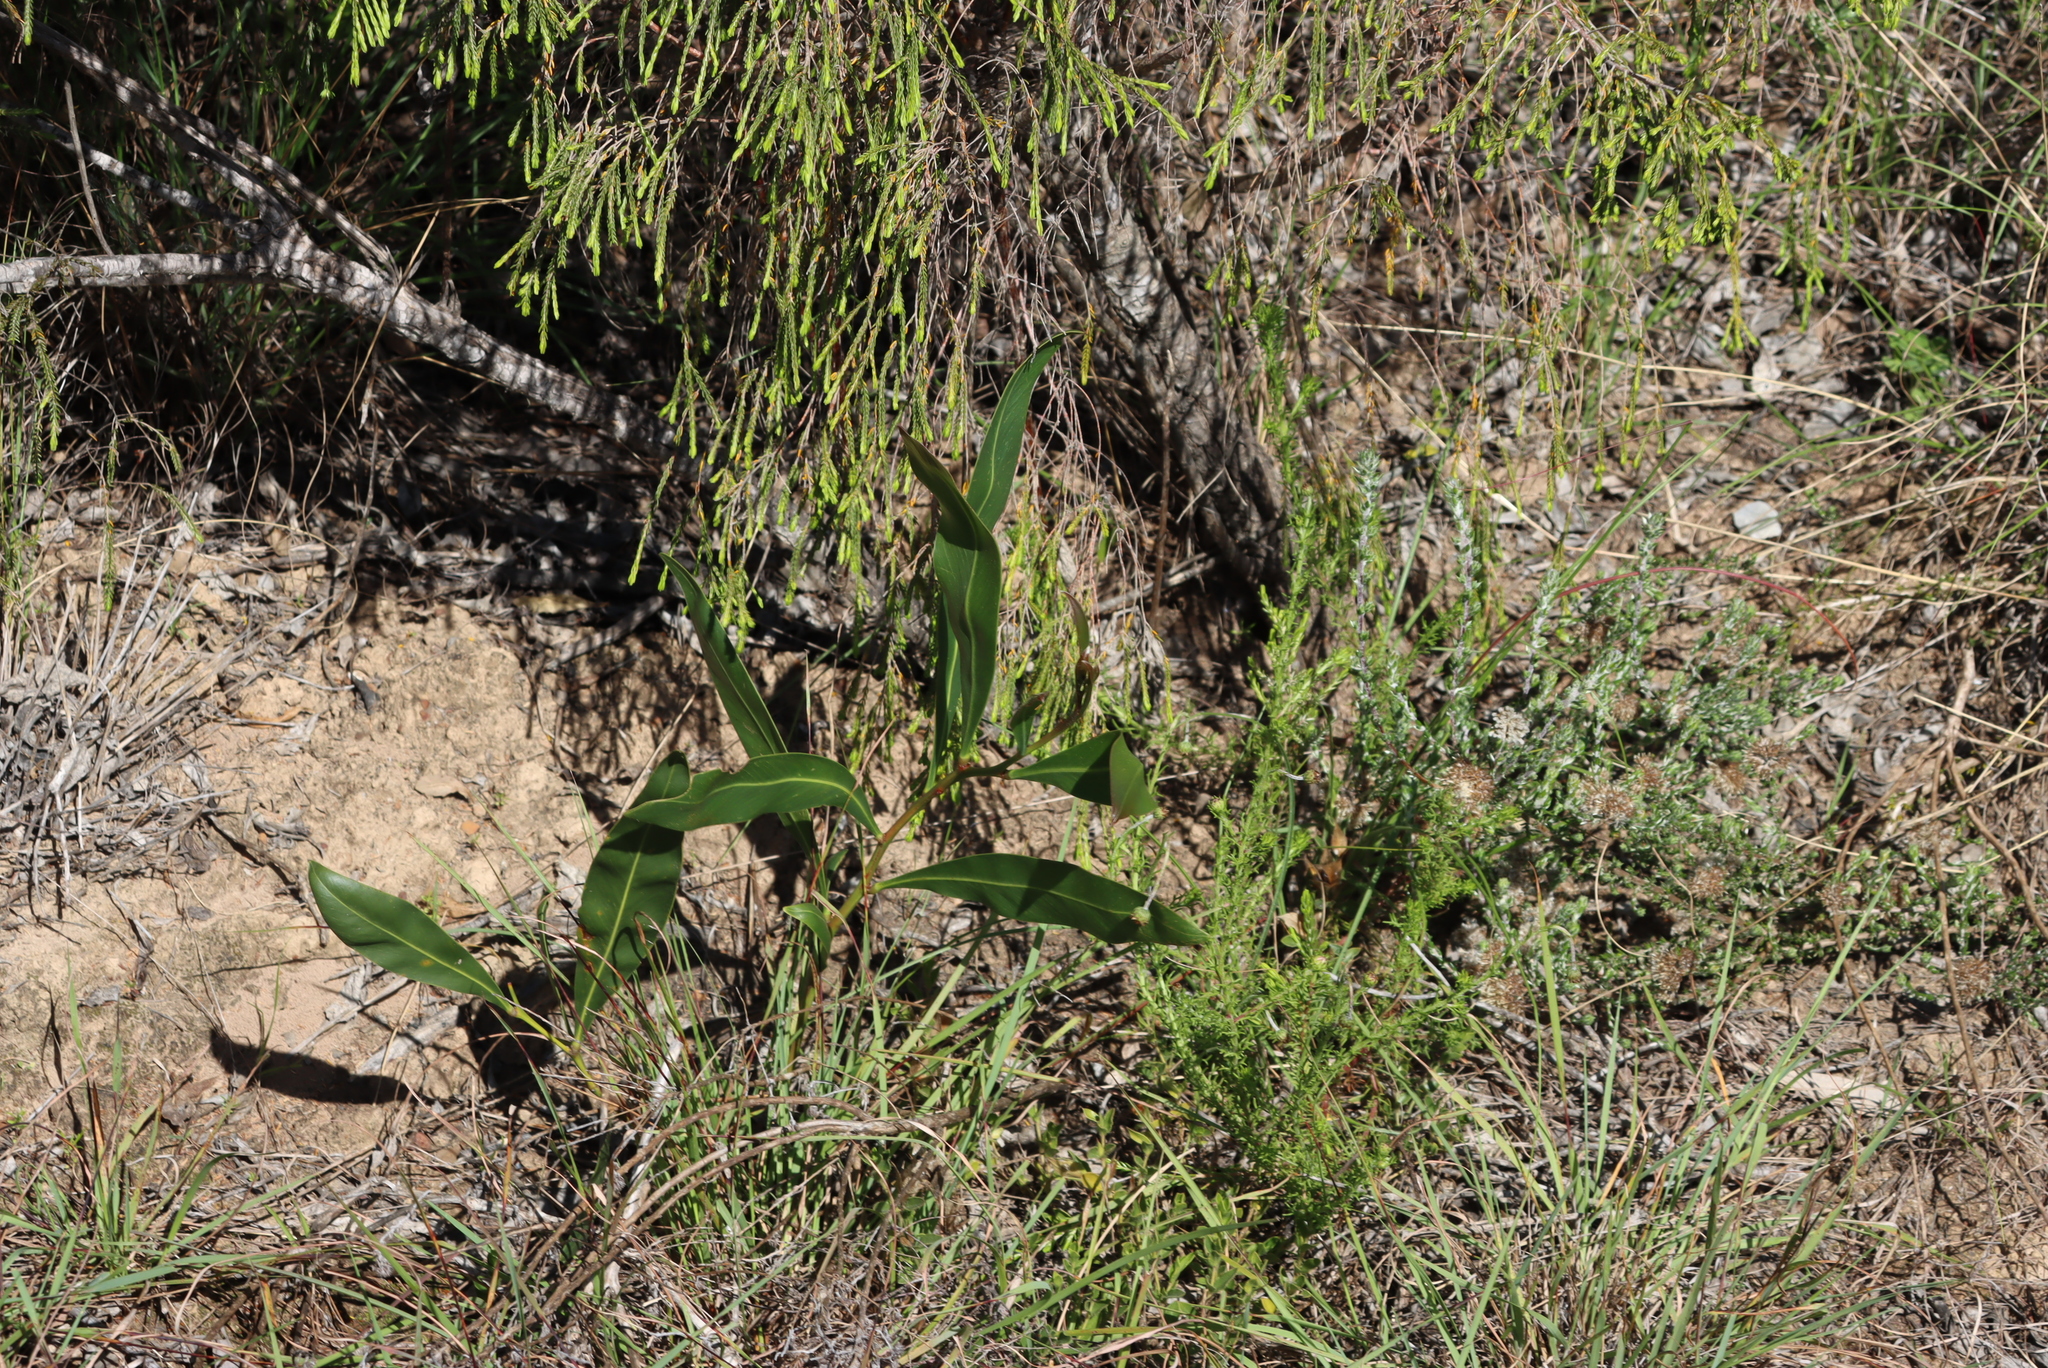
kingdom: Plantae
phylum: Tracheophyta
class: Magnoliopsida
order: Fabales
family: Fabaceae
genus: Acacia
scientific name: Acacia saligna
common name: Orange wattle
